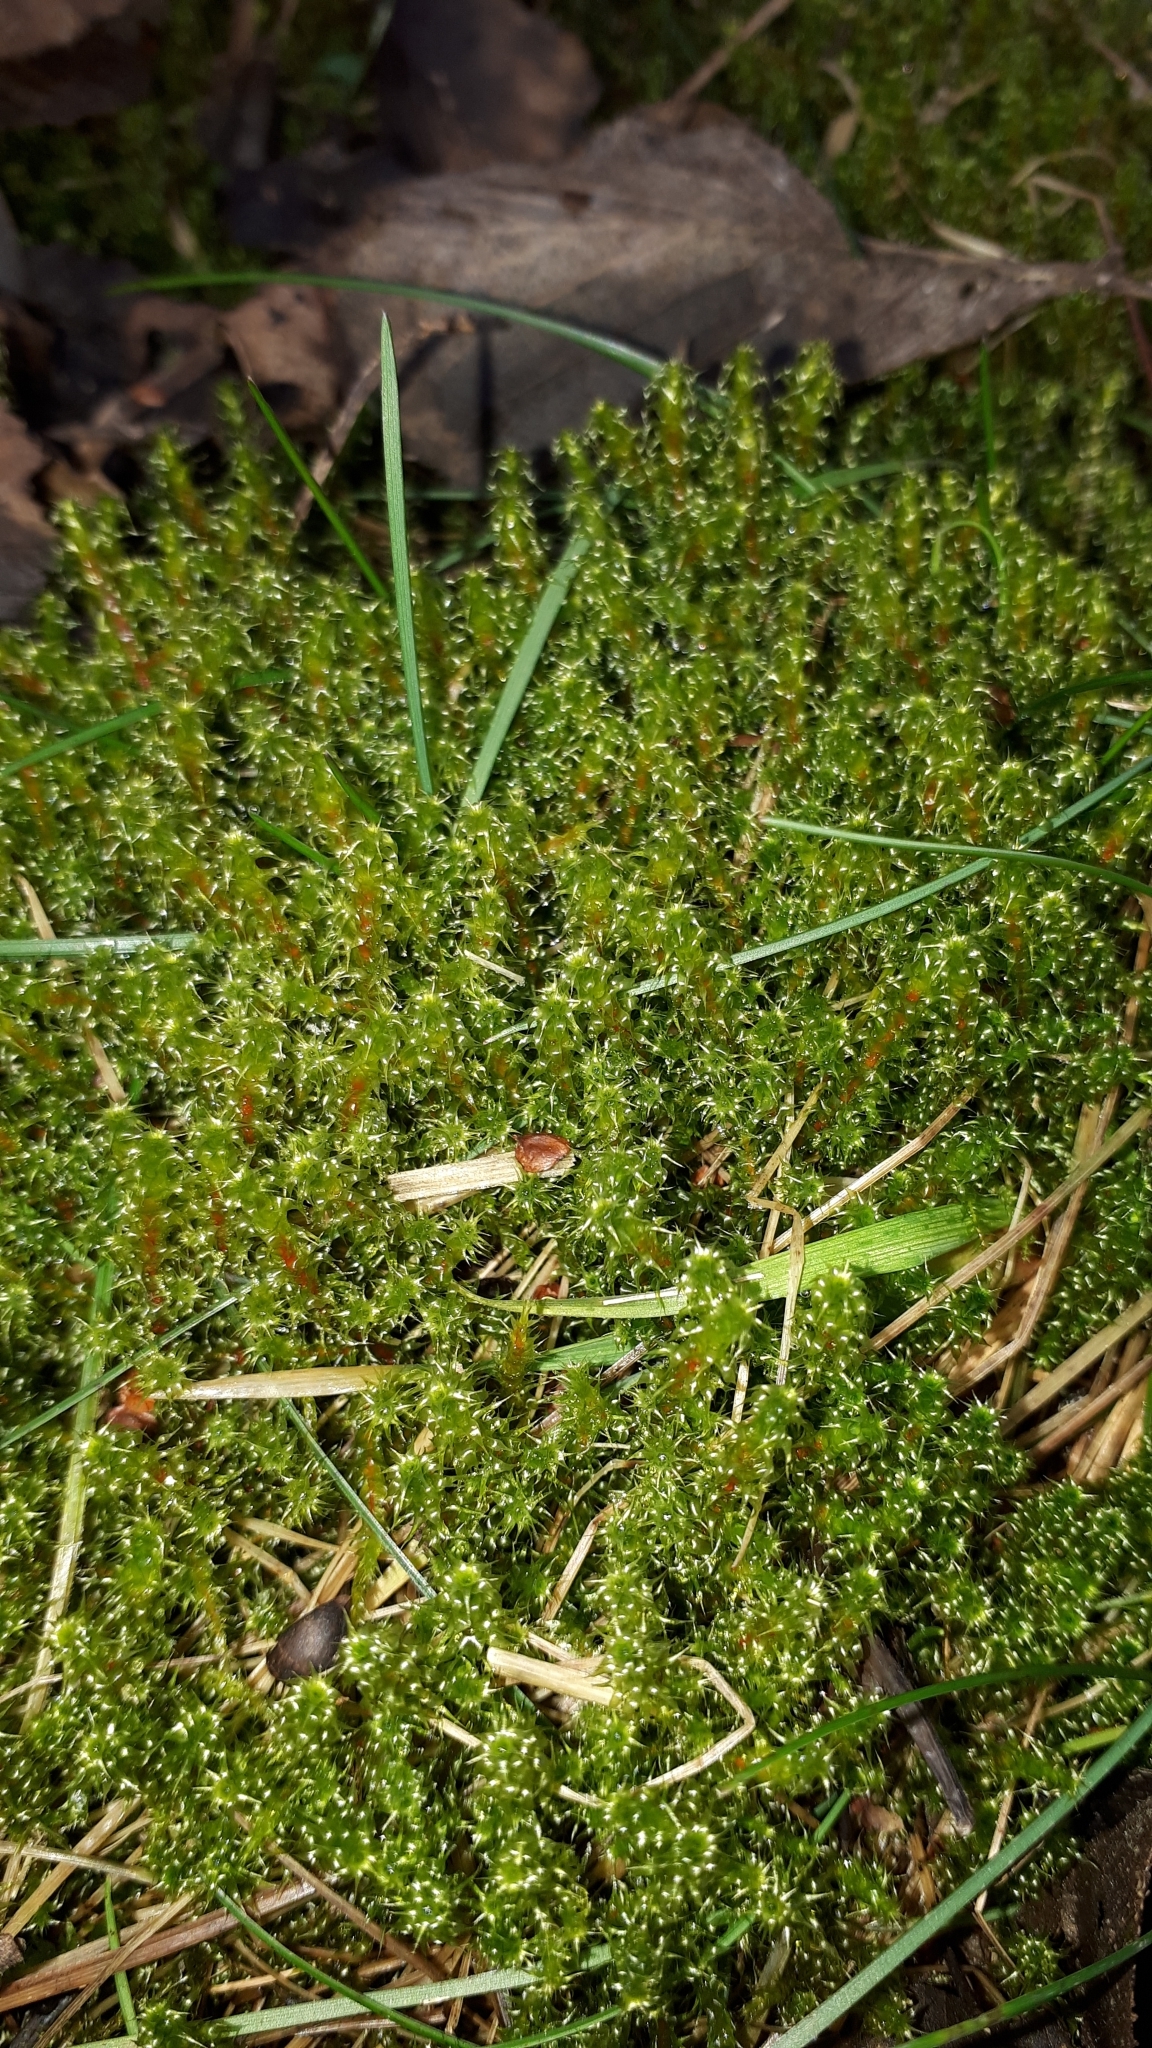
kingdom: Plantae
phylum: Bryophyta
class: Bryopsida
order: Hypnales
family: Hylocomiaceae
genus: Rhytidiadelphus
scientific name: Rhytidiadelphus squarrosus
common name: Springy turf-moss
